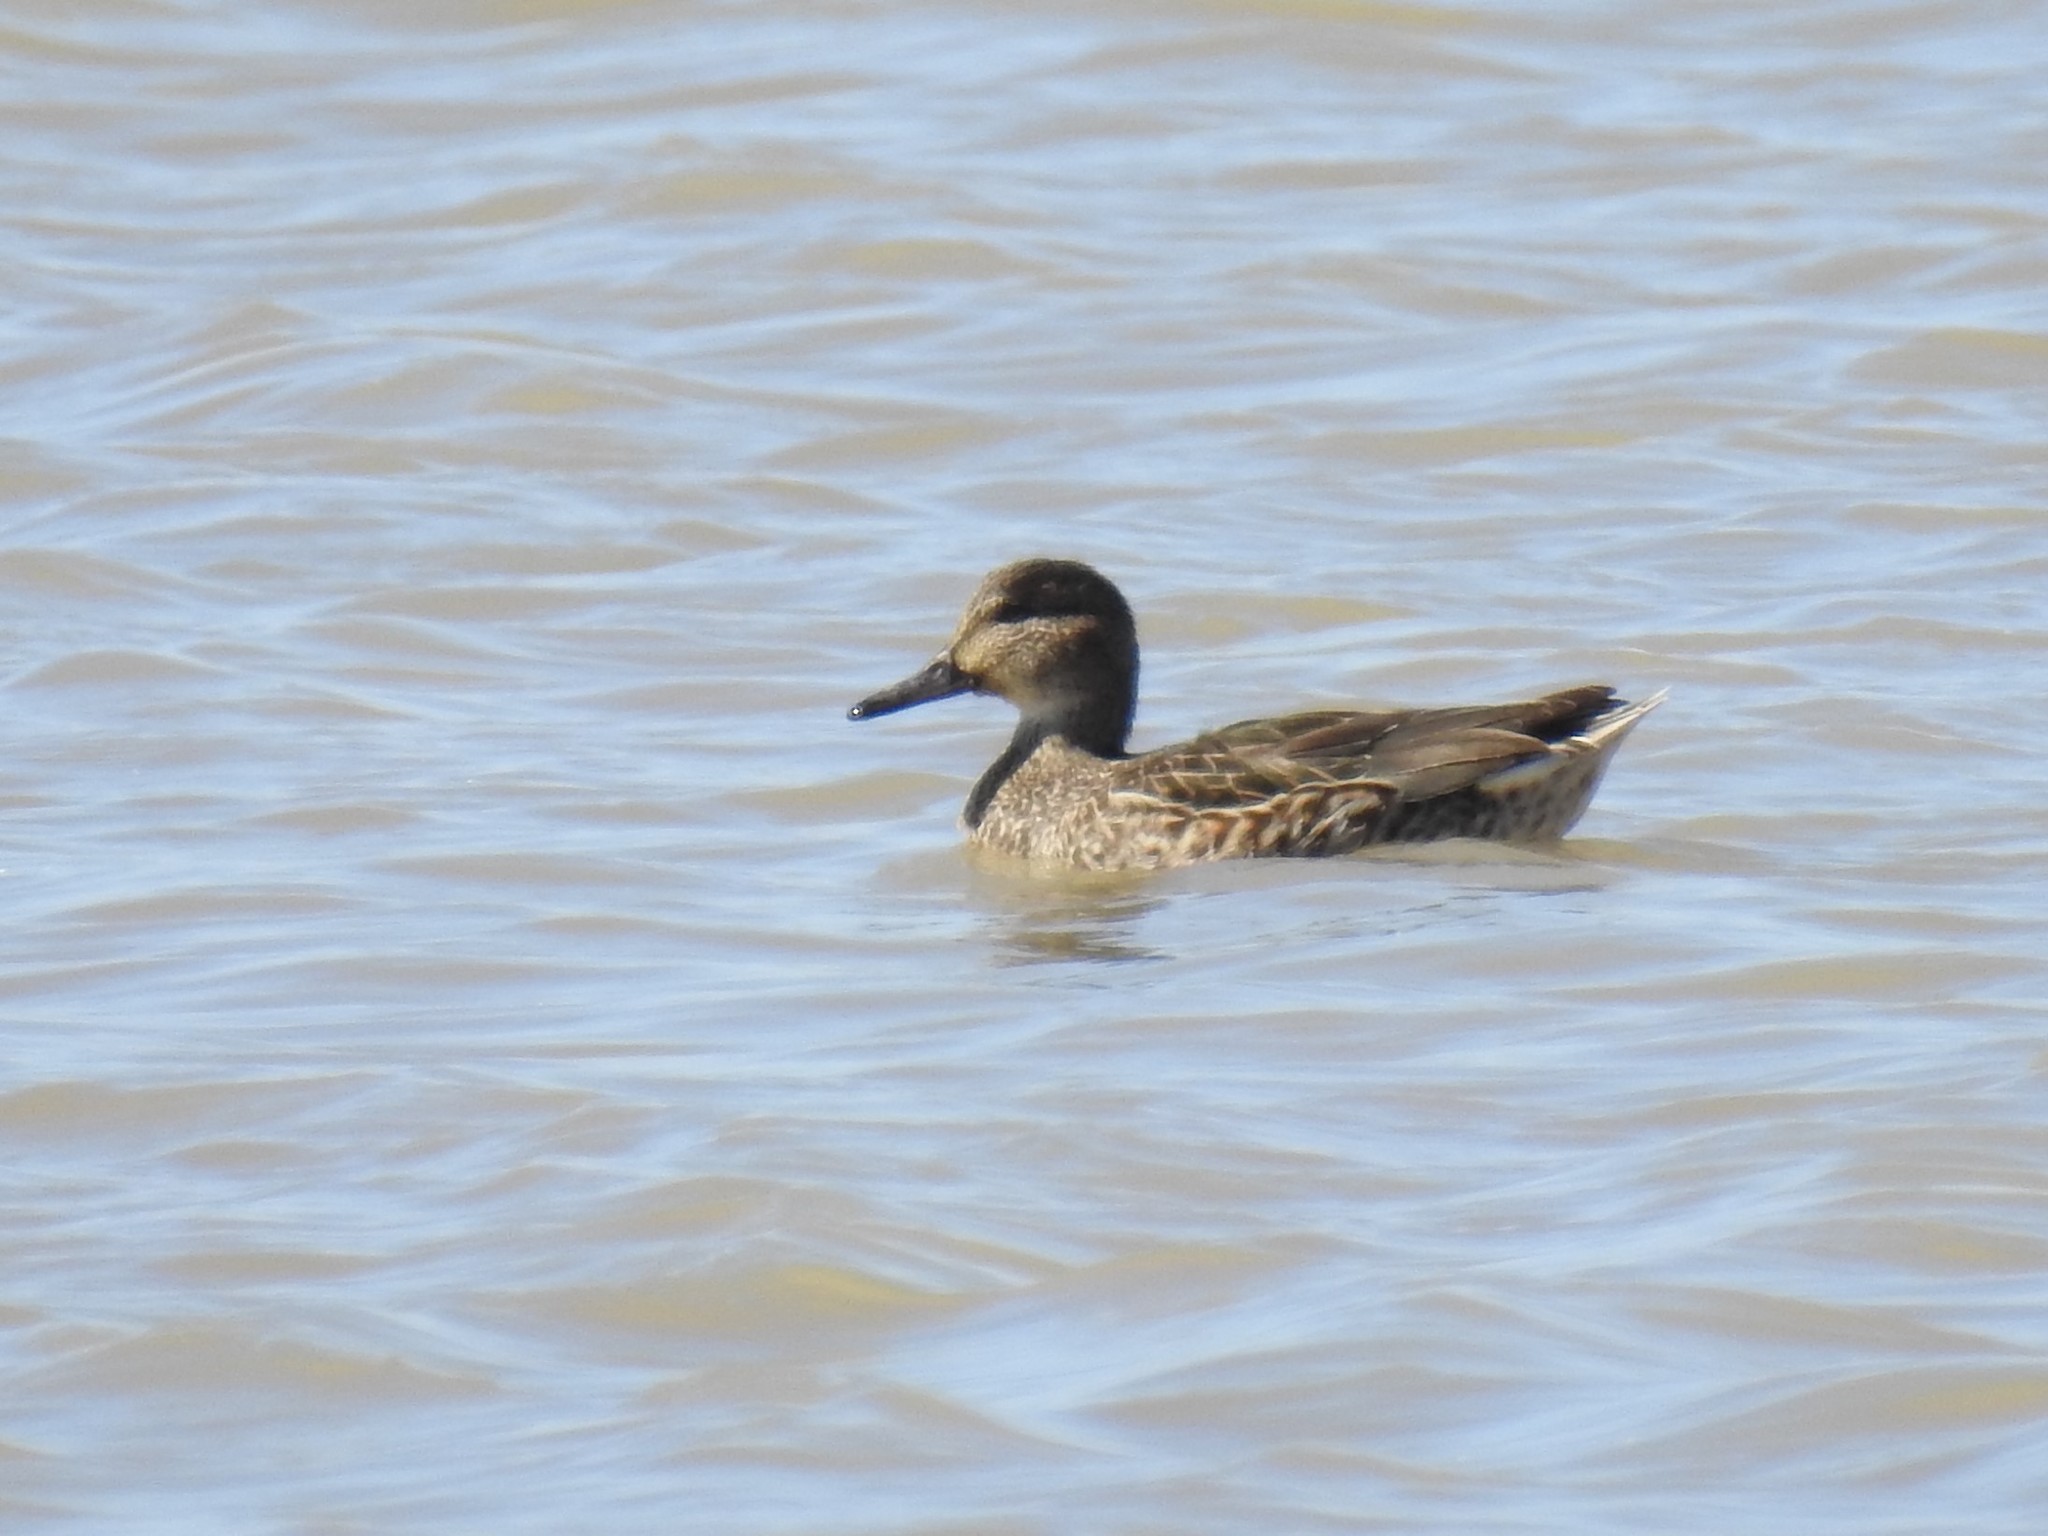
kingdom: Animalia
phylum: Chordata
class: Aves
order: Anseriformes
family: Anatidae
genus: Anas
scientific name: Anas crecca
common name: Eurasian teal
